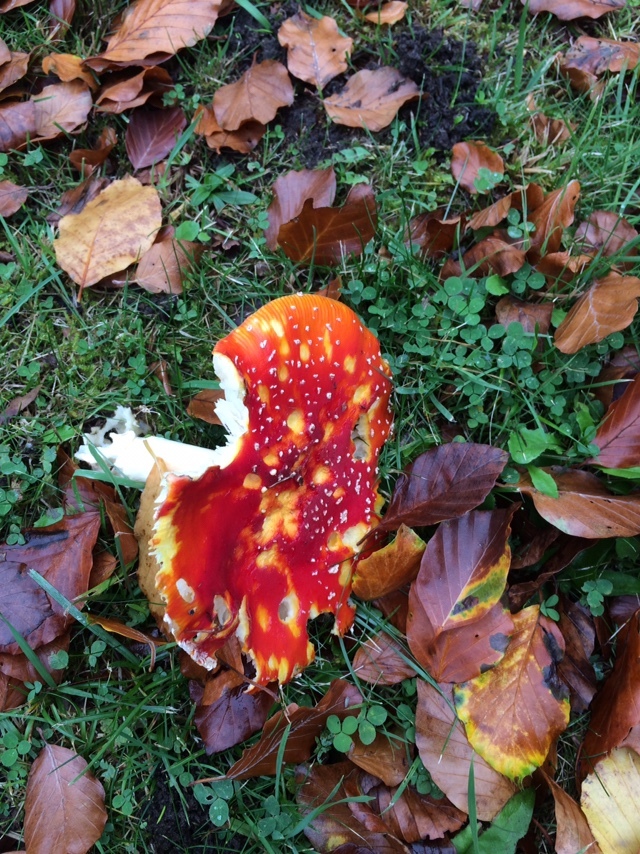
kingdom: Fungi
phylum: Basidiomycota
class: Agaricomycetes
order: Agaricales
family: Amanitaceae
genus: Amanita
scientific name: Amanita muscaria
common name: Fly agaric
